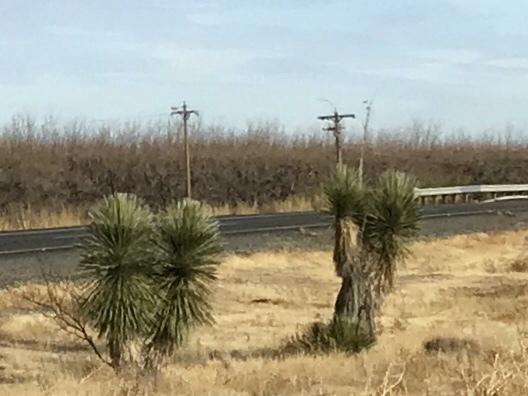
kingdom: Plantae
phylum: Tracheophyta
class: Liliopsida
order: Asparagales
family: Asparagaceae
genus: Yucca
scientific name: Yucca elata
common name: Palmella
